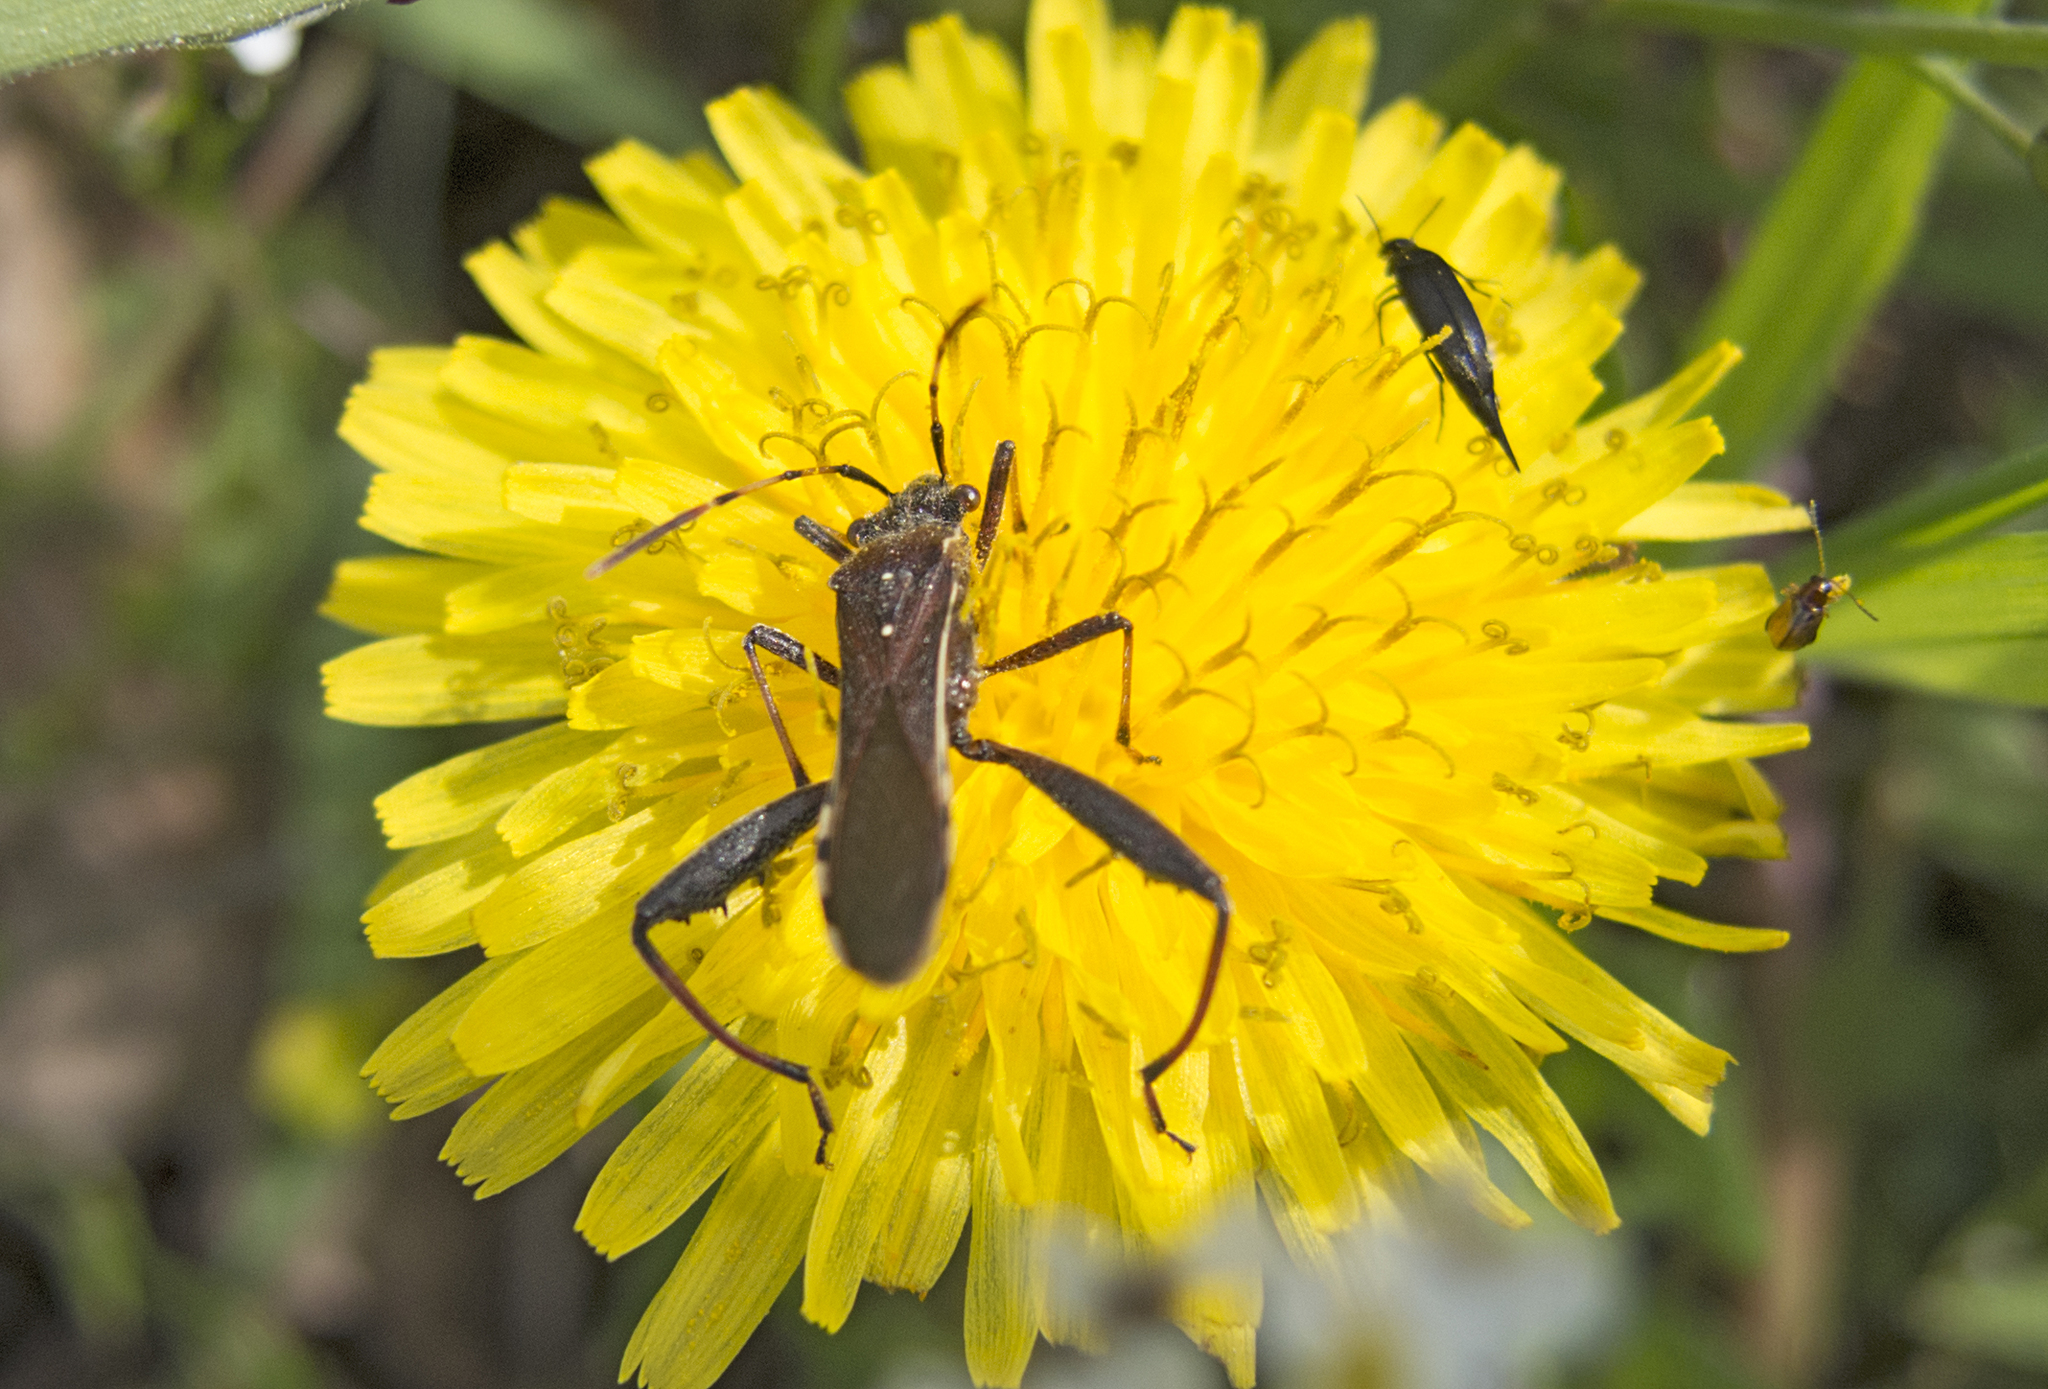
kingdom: Animalia
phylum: Arthropoda
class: Insecta
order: Hemiptera
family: Alydidae
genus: Camptopus
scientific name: Camptopus lateralis
